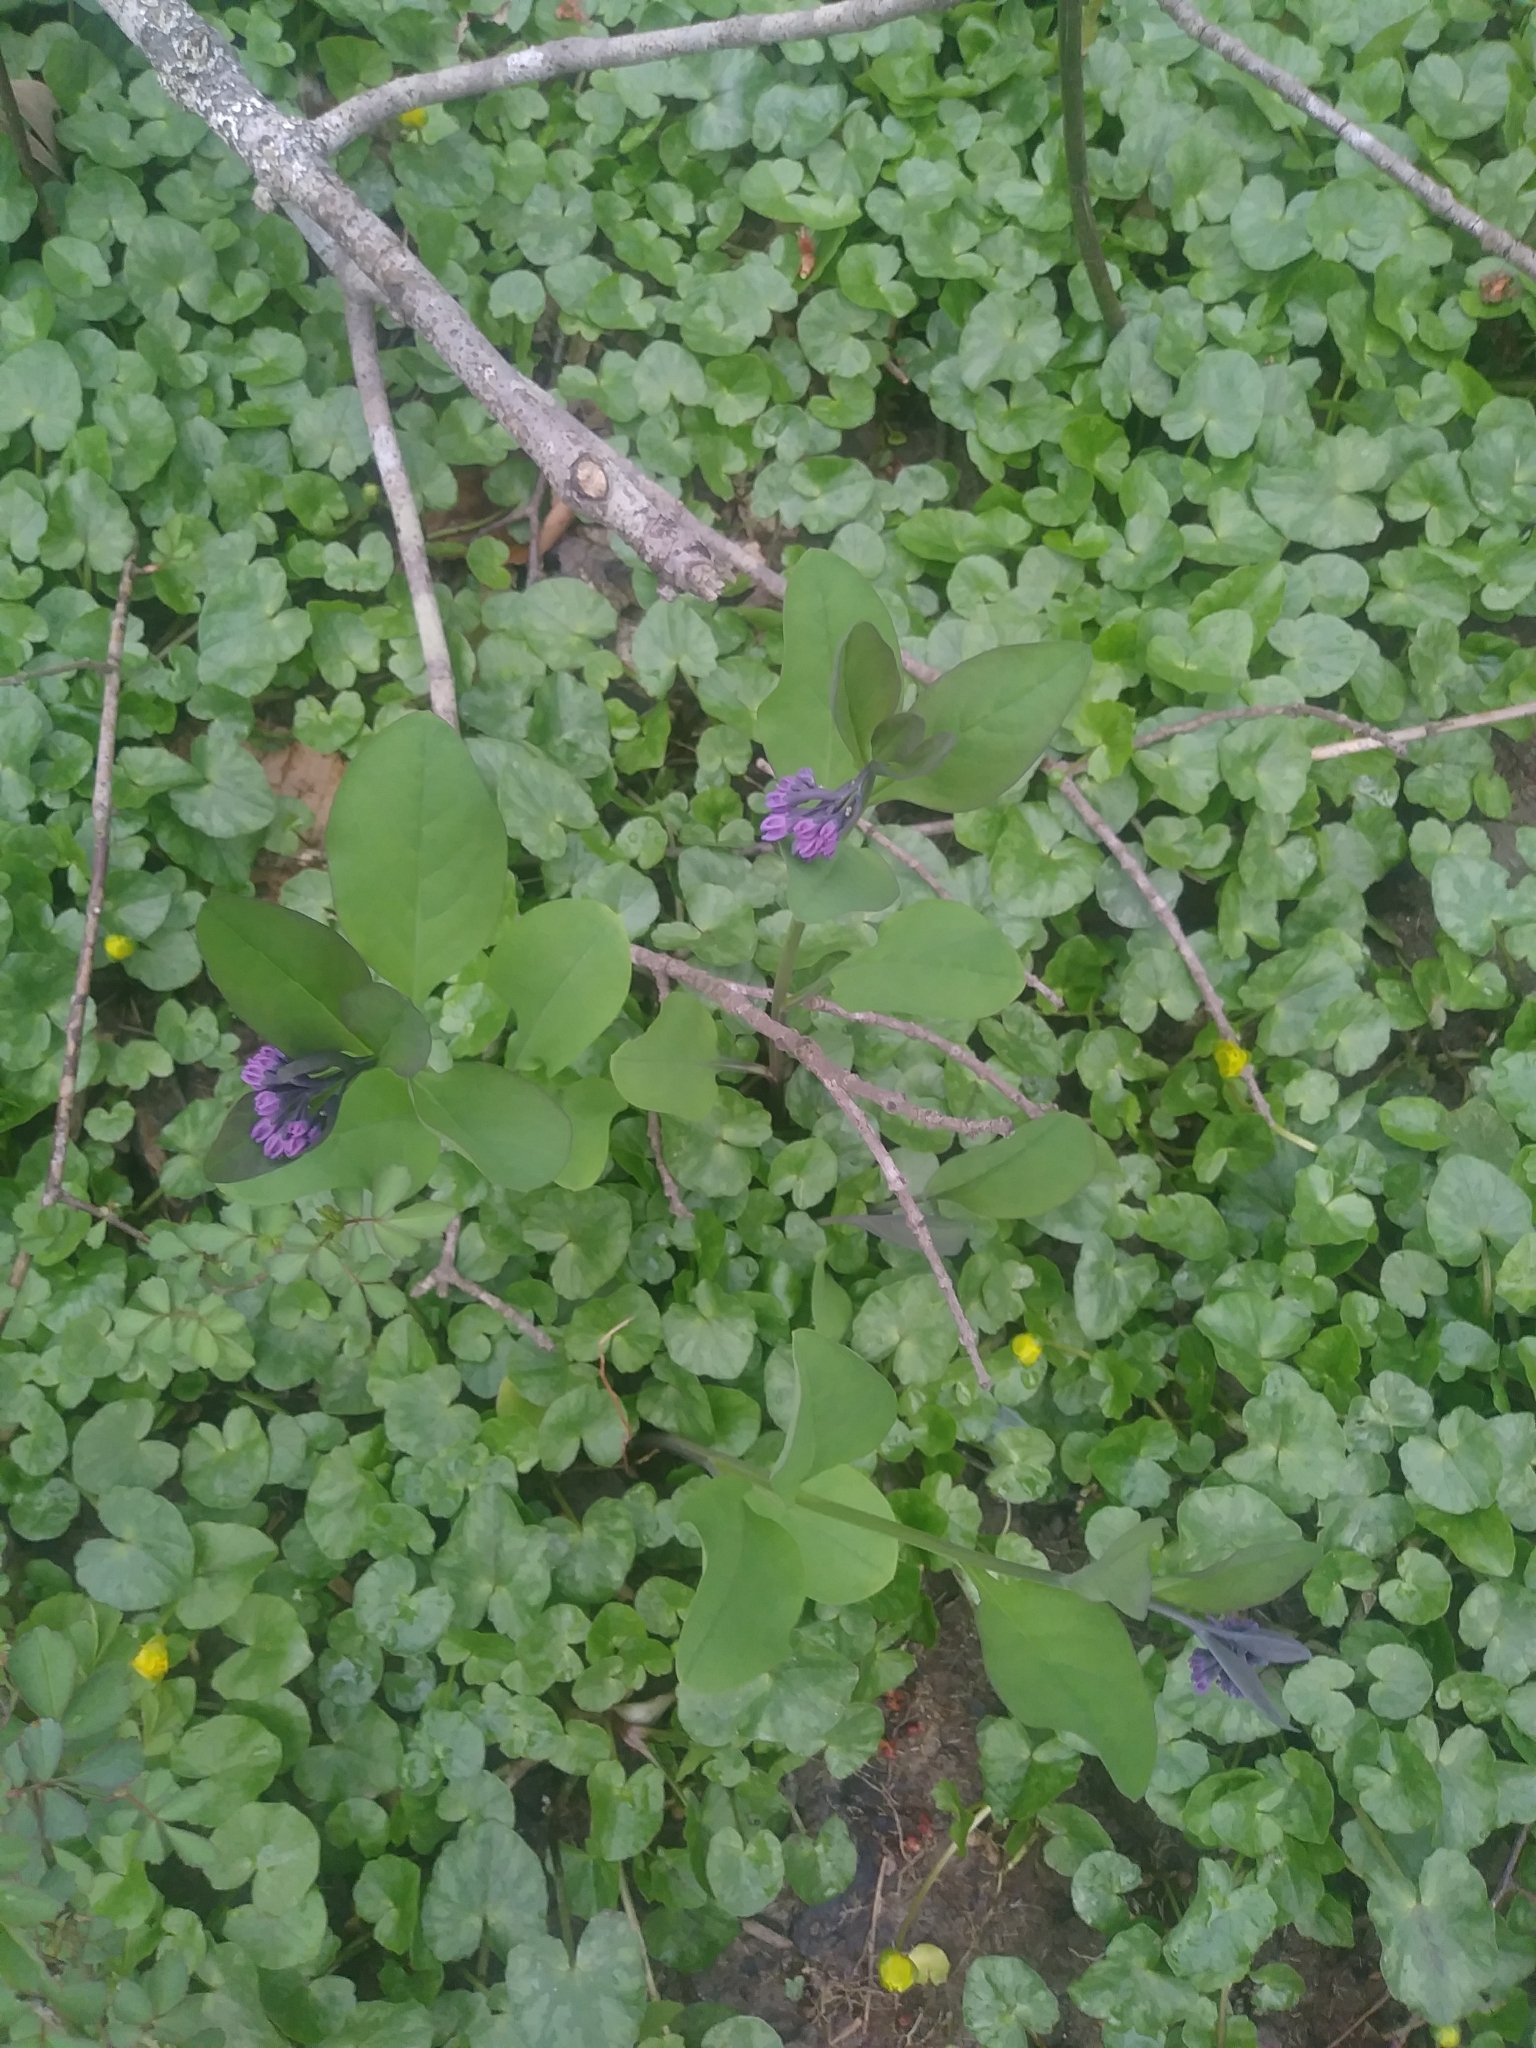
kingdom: Plantae
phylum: Tracheophyta
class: Magnoliopsida
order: Boraginales
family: Boraginaceae
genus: Mertensia
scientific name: Mertensia virginica
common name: Virginia bluebells
